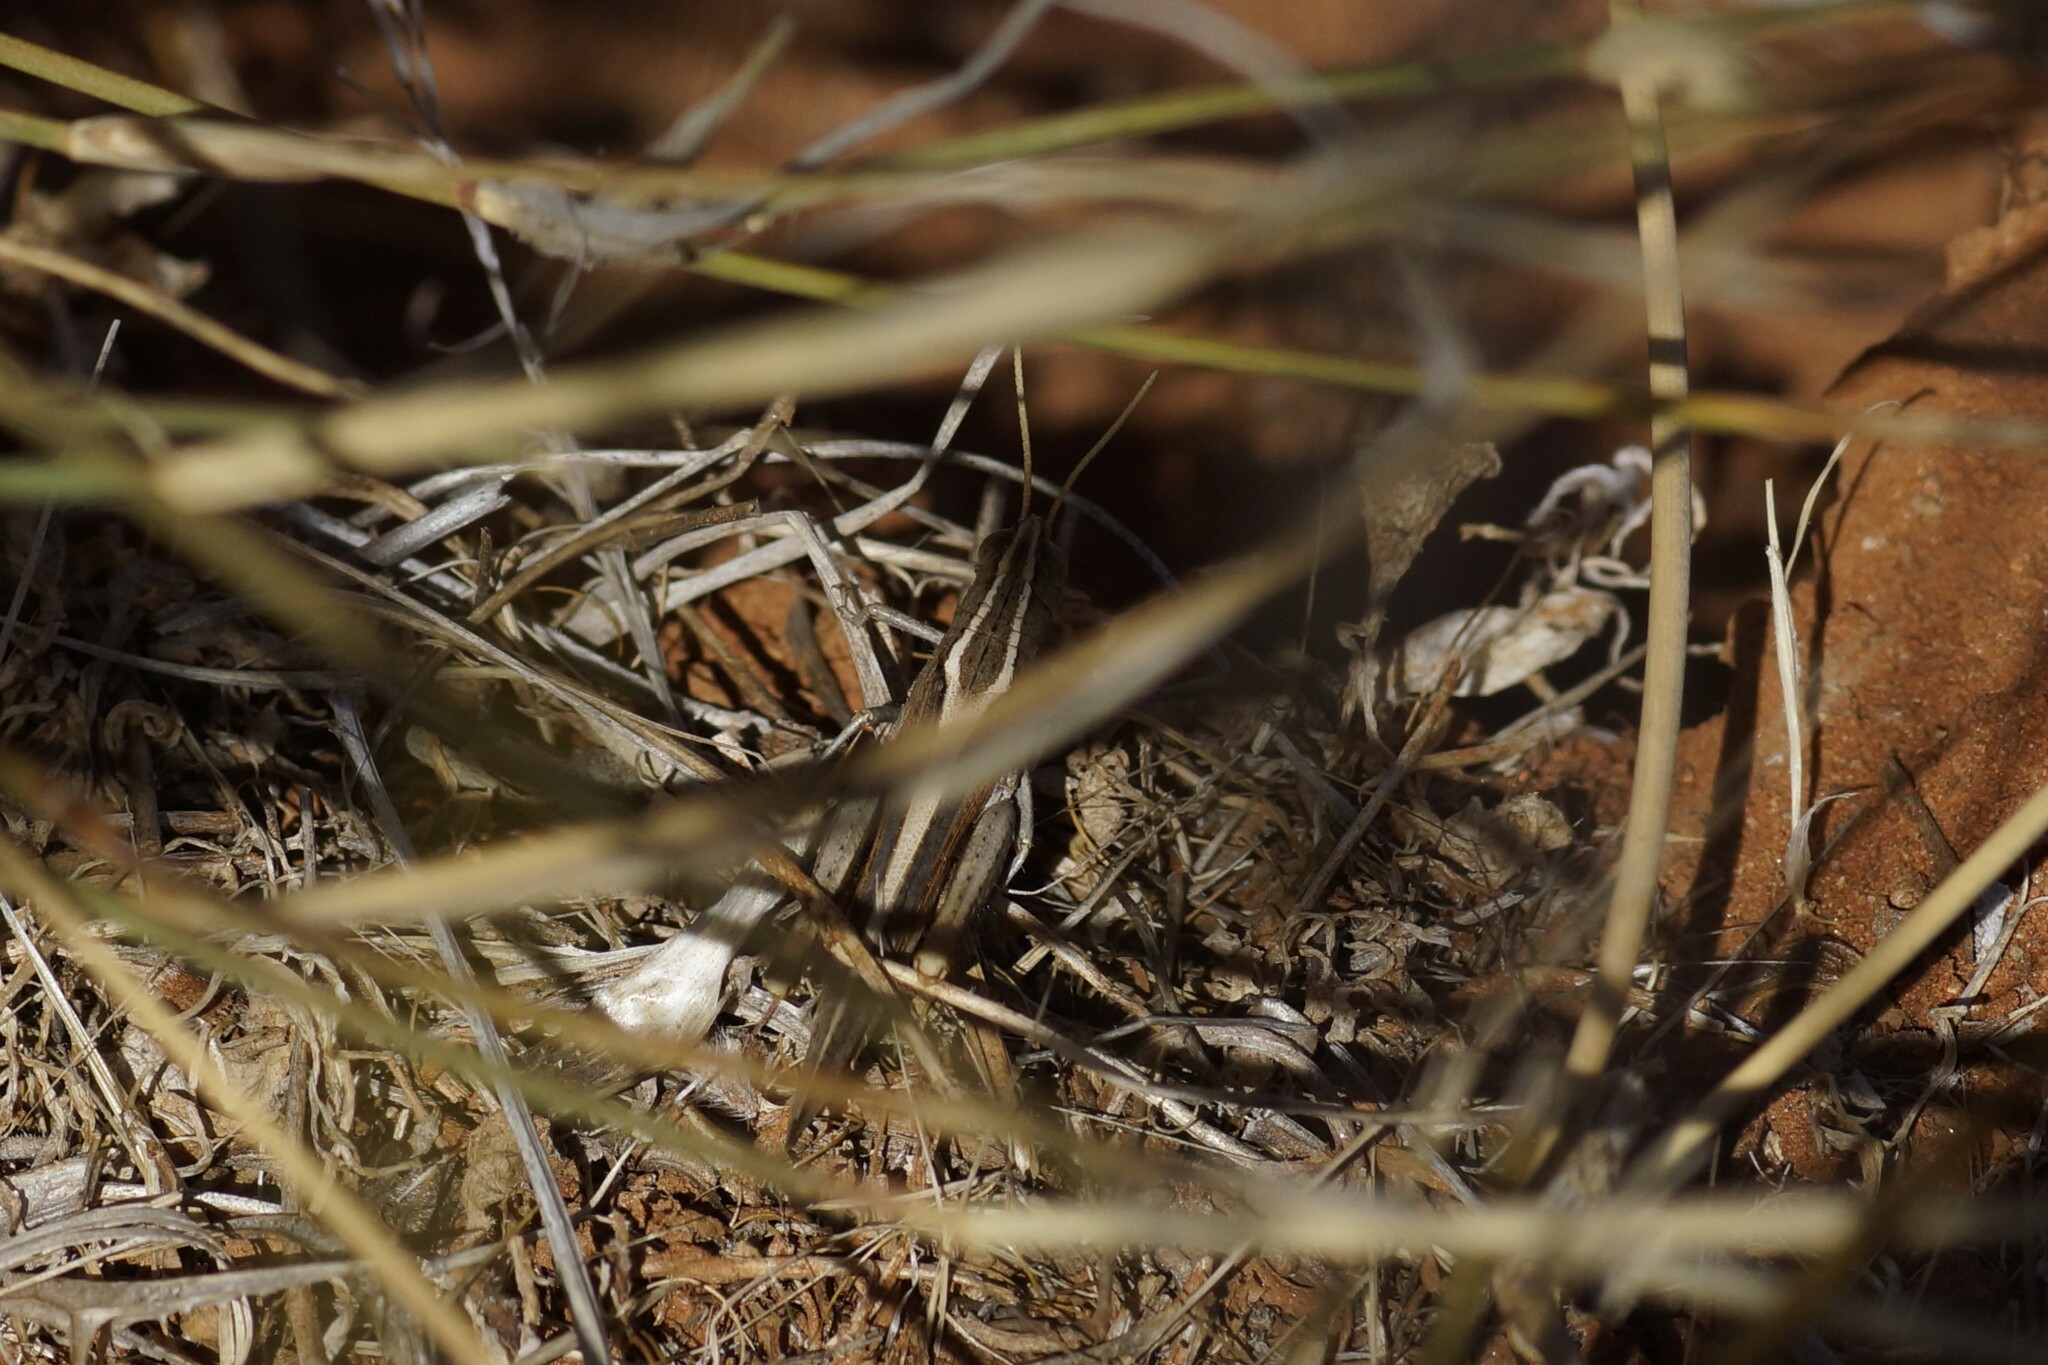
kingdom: Animalia
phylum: Arthropoda
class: Insecta
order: Orthoptera
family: Acrididae
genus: Apotropis
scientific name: Apotropis vittata
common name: Common striped grasshopper
